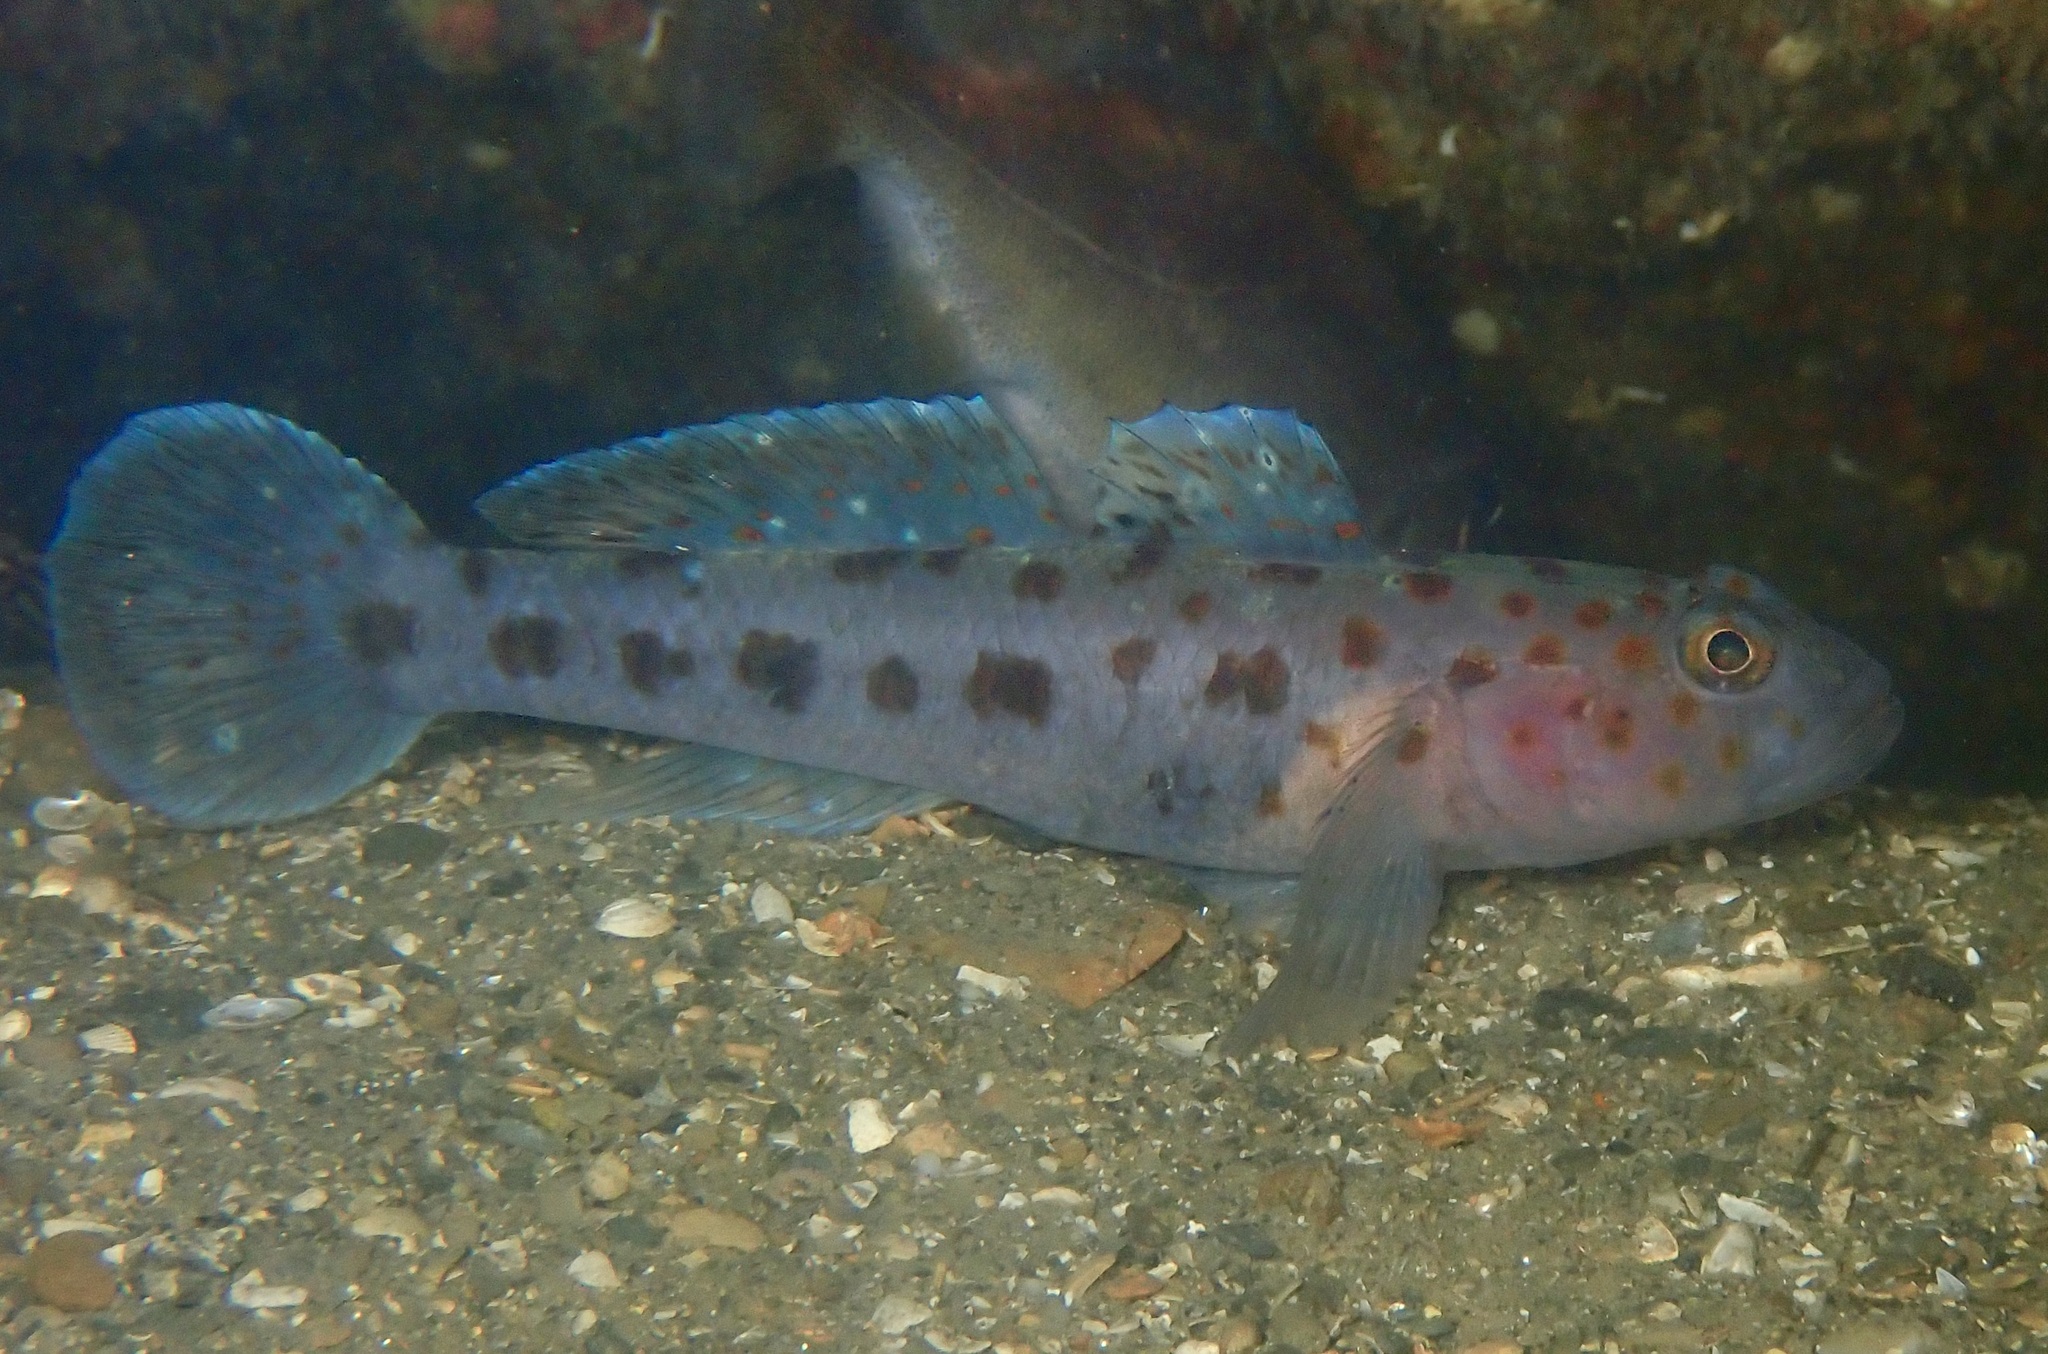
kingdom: Animalia
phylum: Chordata
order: Perciformes
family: Gobiidae
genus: Thorogobius
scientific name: Thorogobius ephippiatus
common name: Leopard-spotted goby
